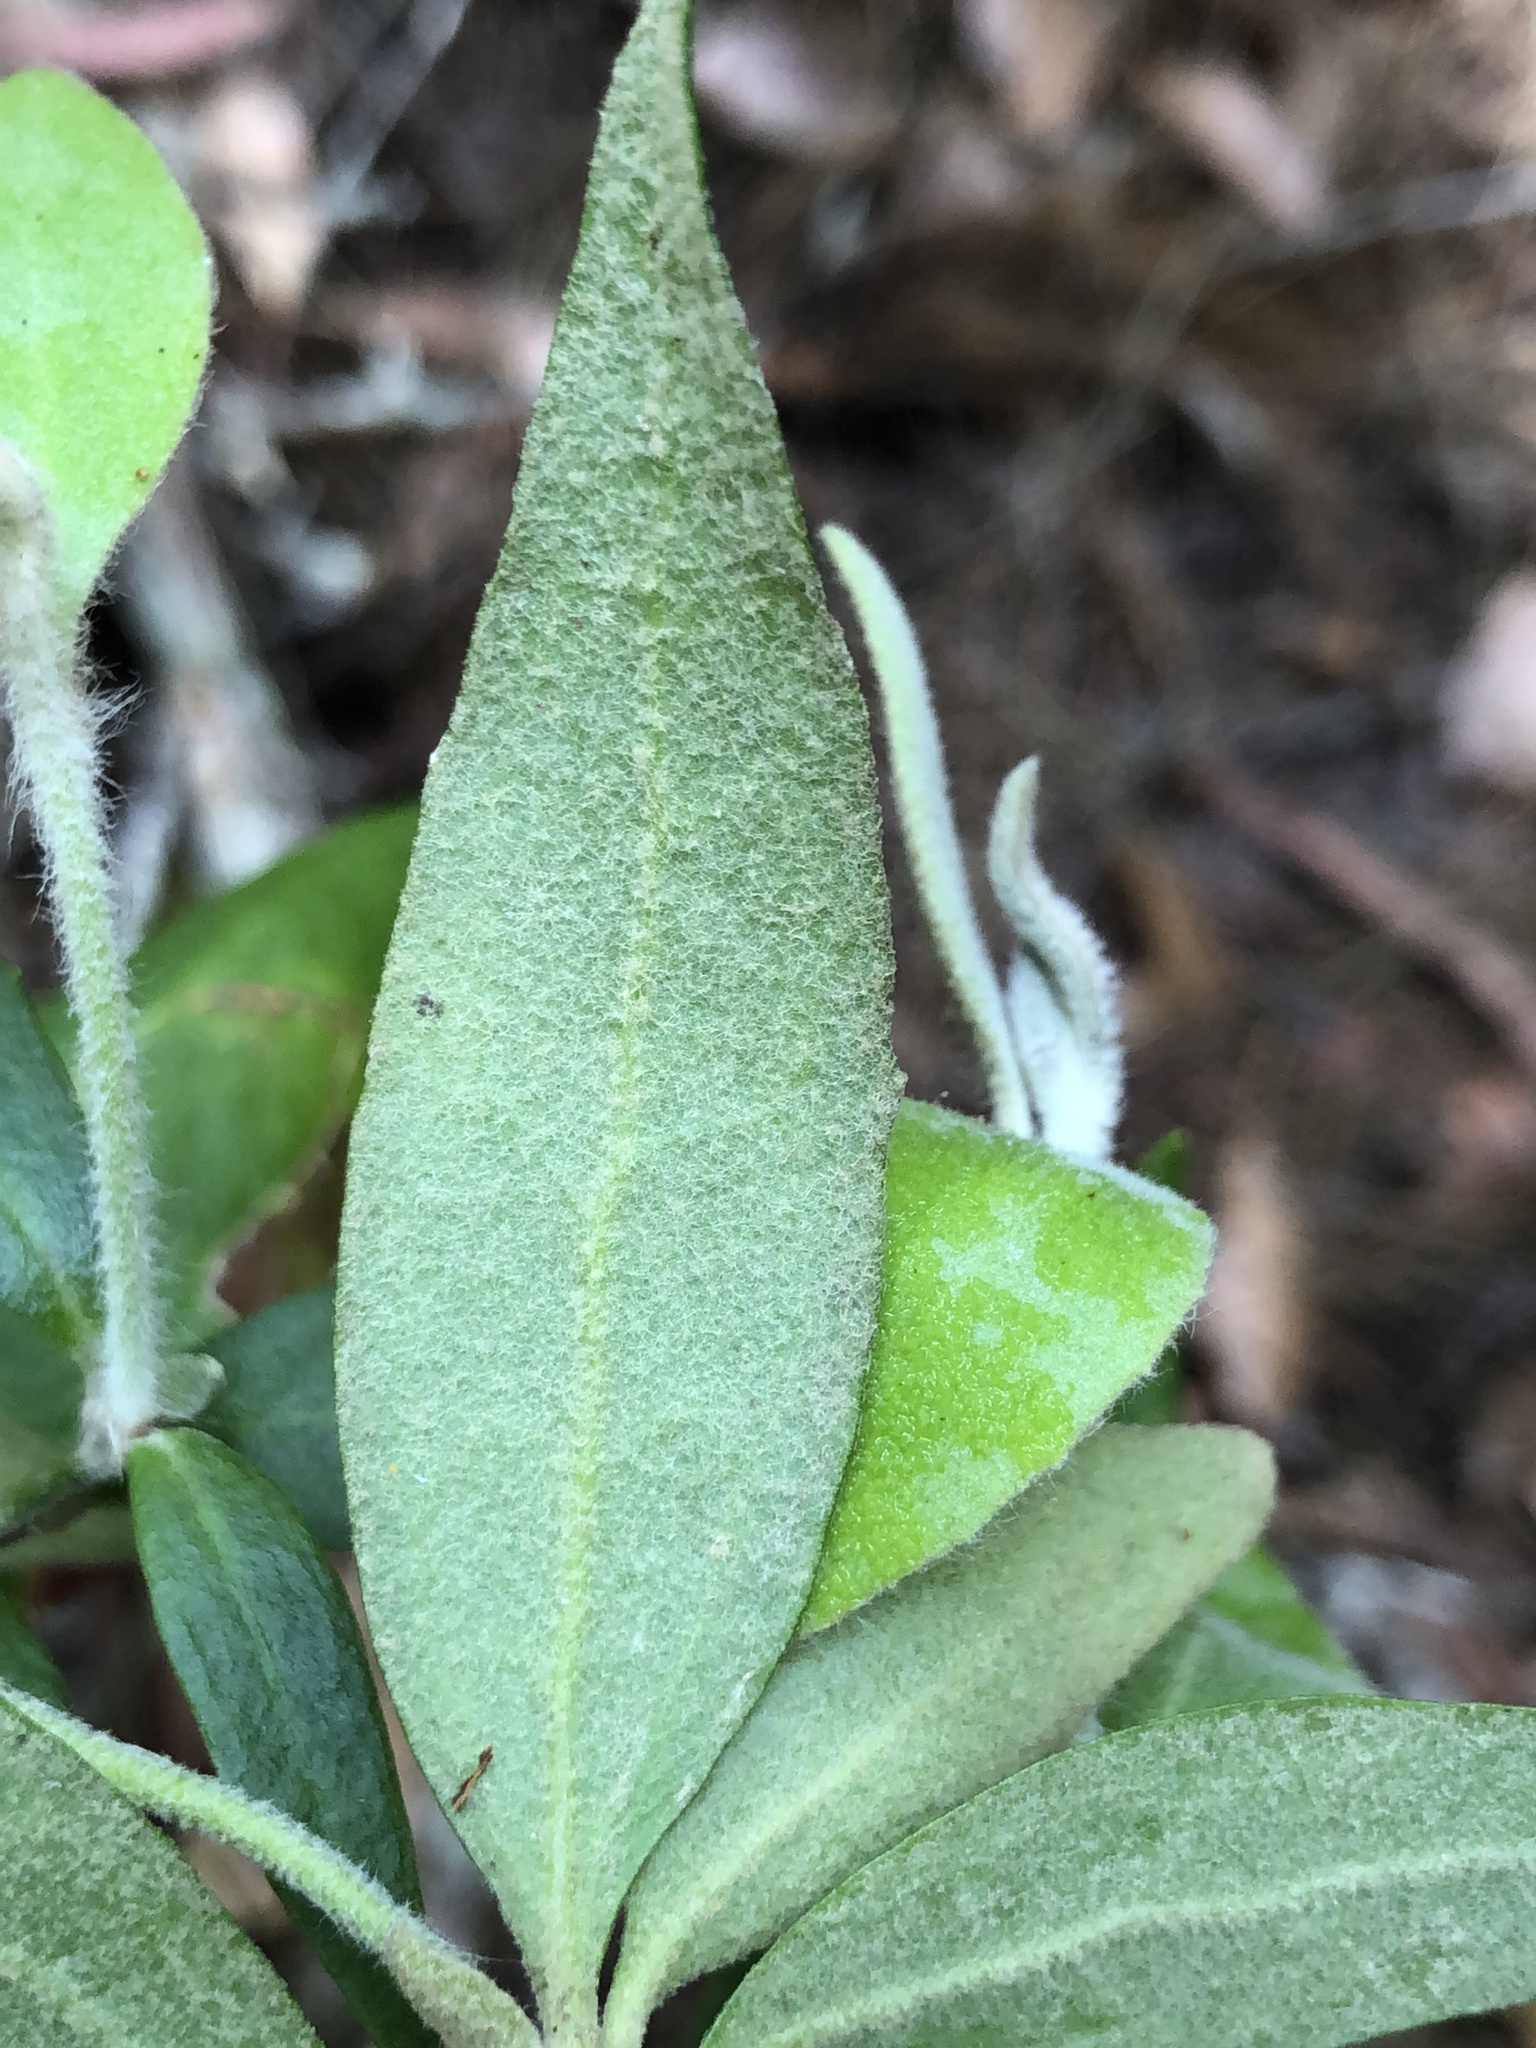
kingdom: Plantae
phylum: Tracheophyta
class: Magnoliopsida
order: Asterales
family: Goodeniaceae
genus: Dampiera
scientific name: Dampiera purpurea
